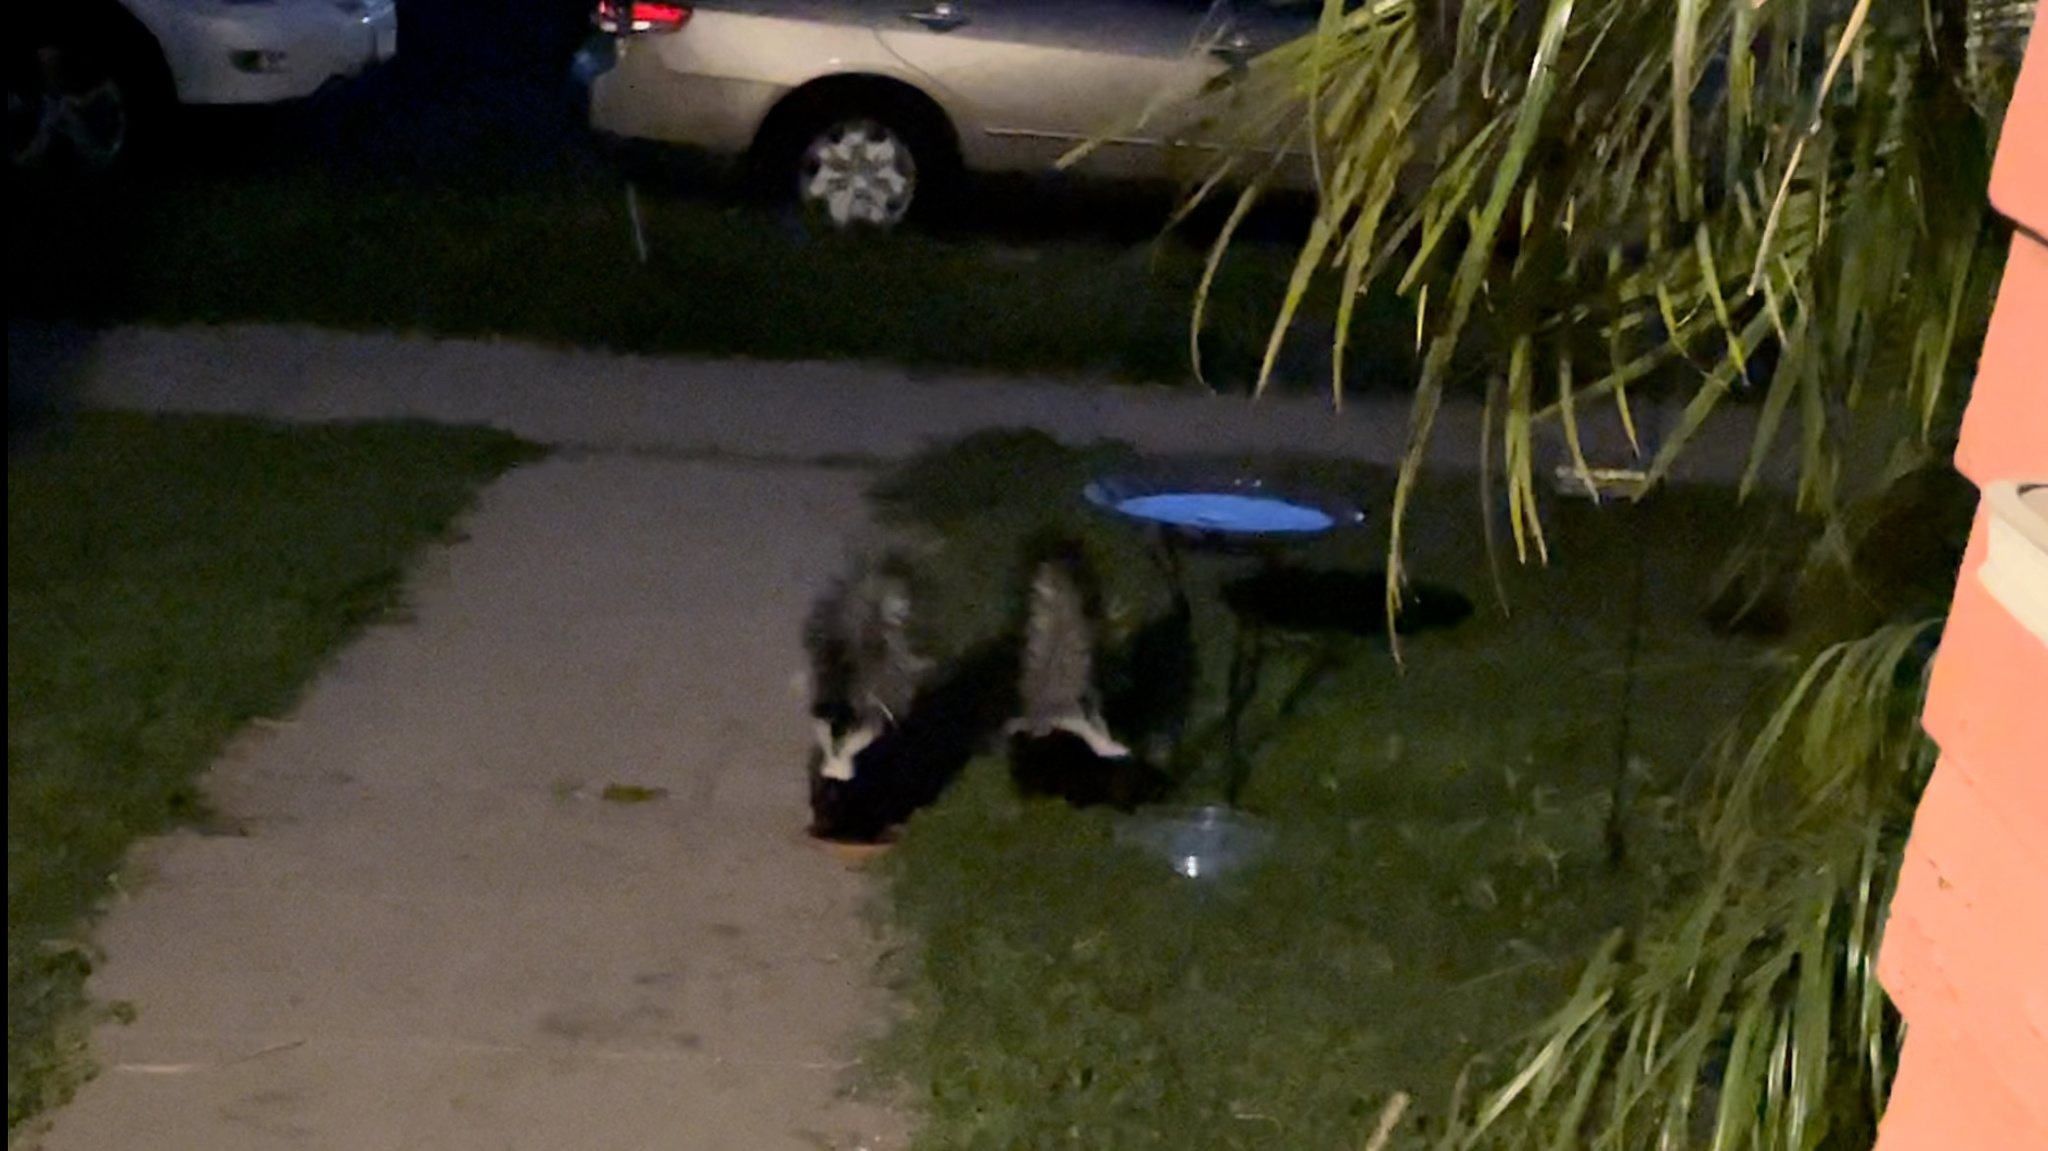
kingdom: Animalia
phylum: Chordata
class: Mammalia
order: Carnivora
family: Mephitidae
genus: Mephitis
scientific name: Mephitis mephitis
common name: Striped skunk
